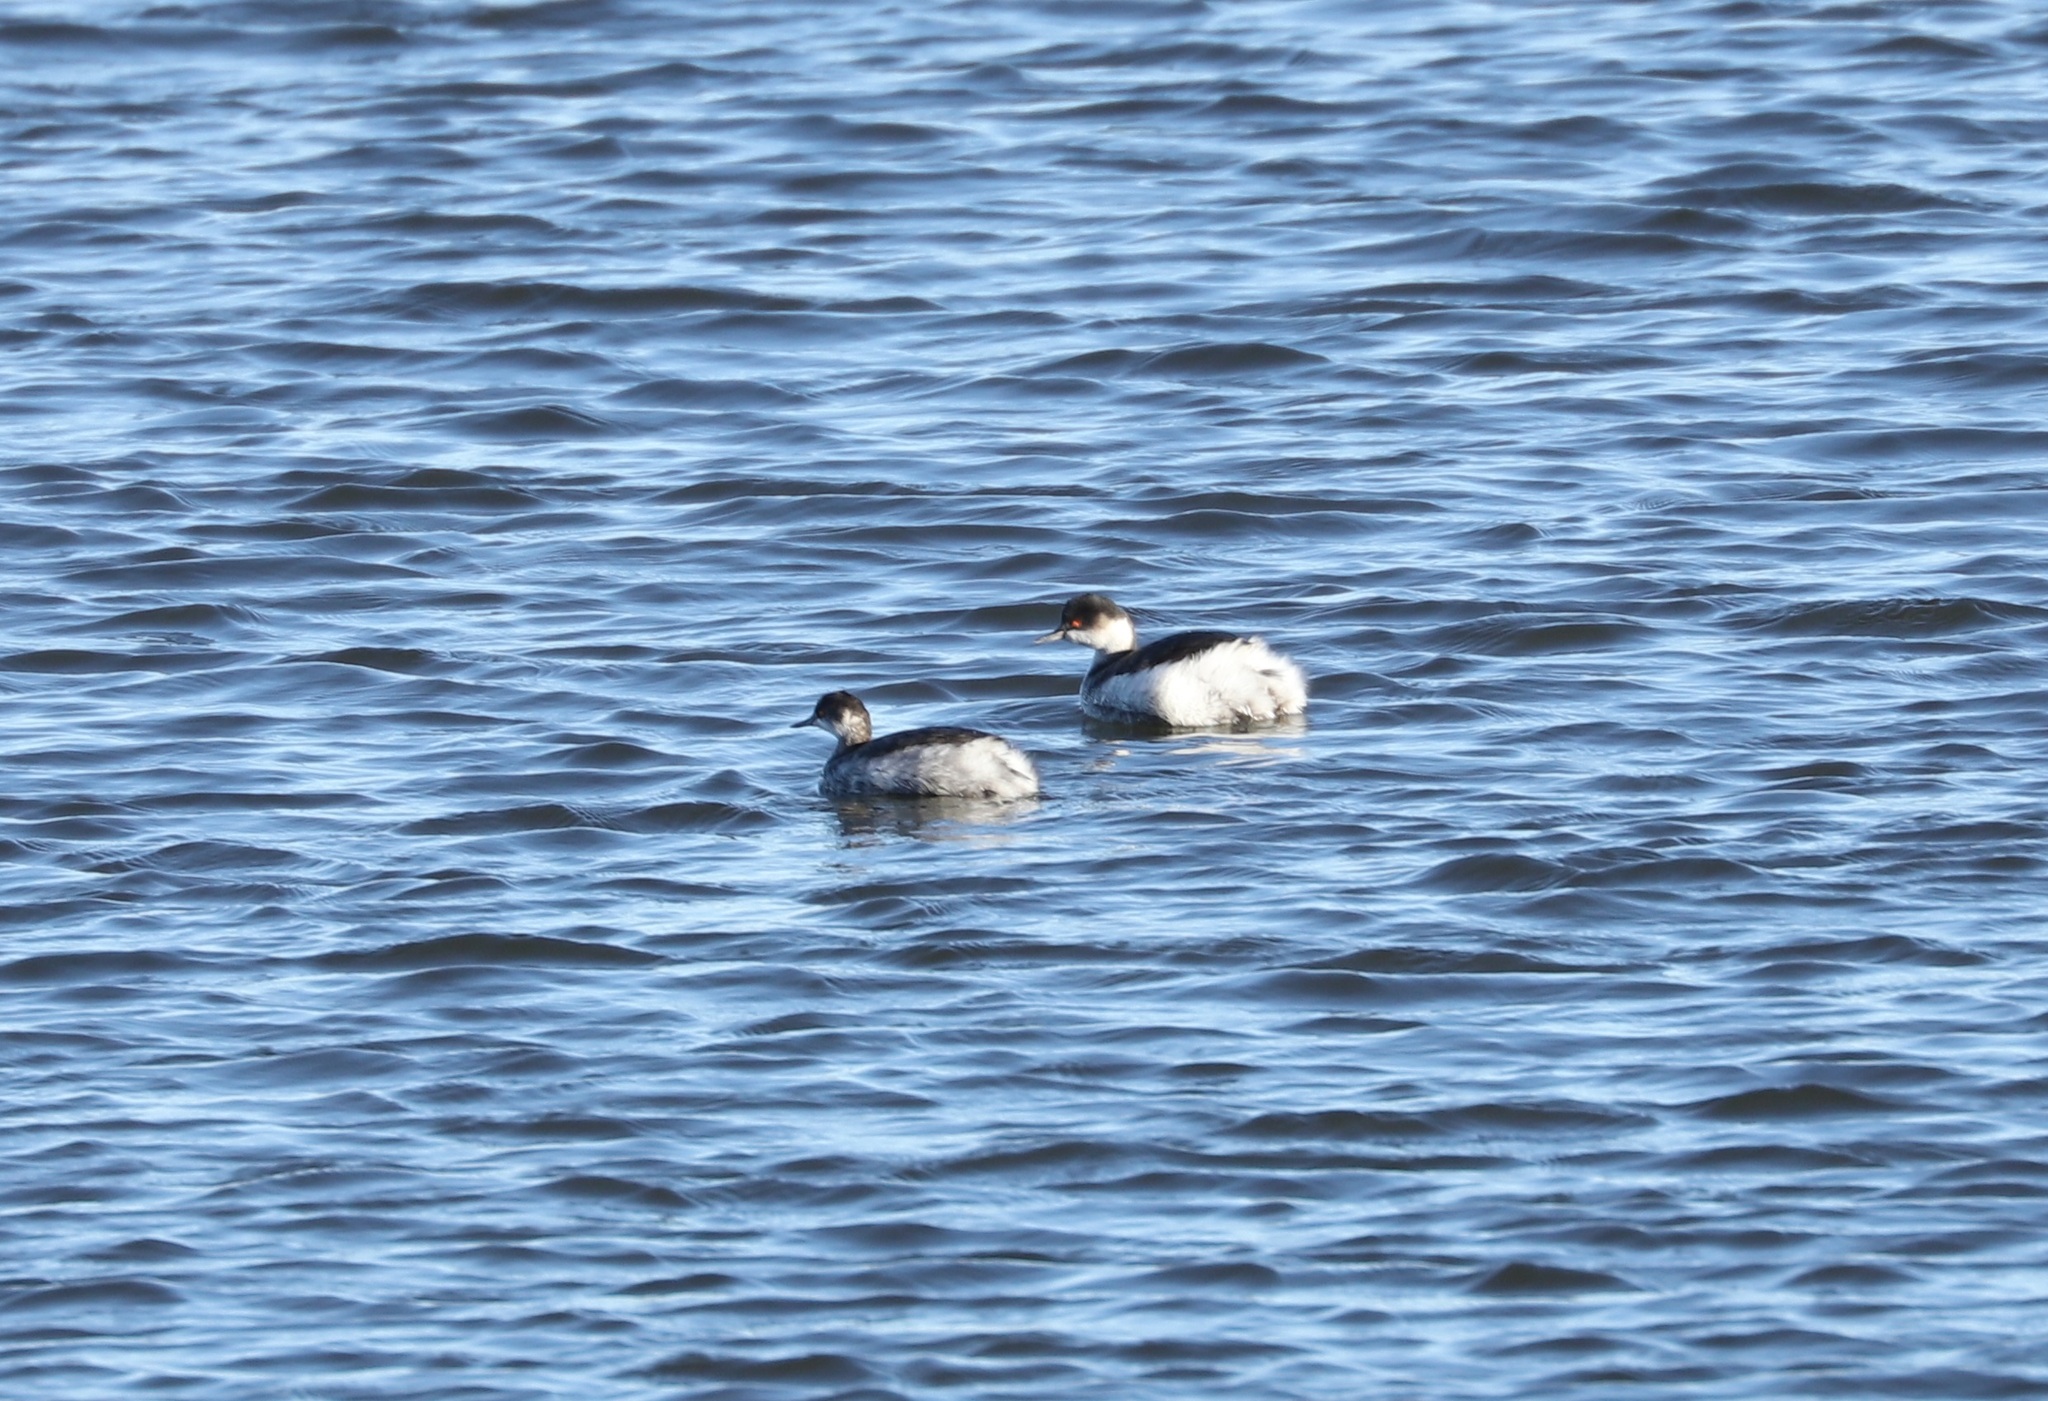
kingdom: Animalia
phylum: Chordata
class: Aves
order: Podicipediformes
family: Podicipedidae
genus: Podiceps
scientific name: Podiceps nigricollis
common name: Black-necked grebe
